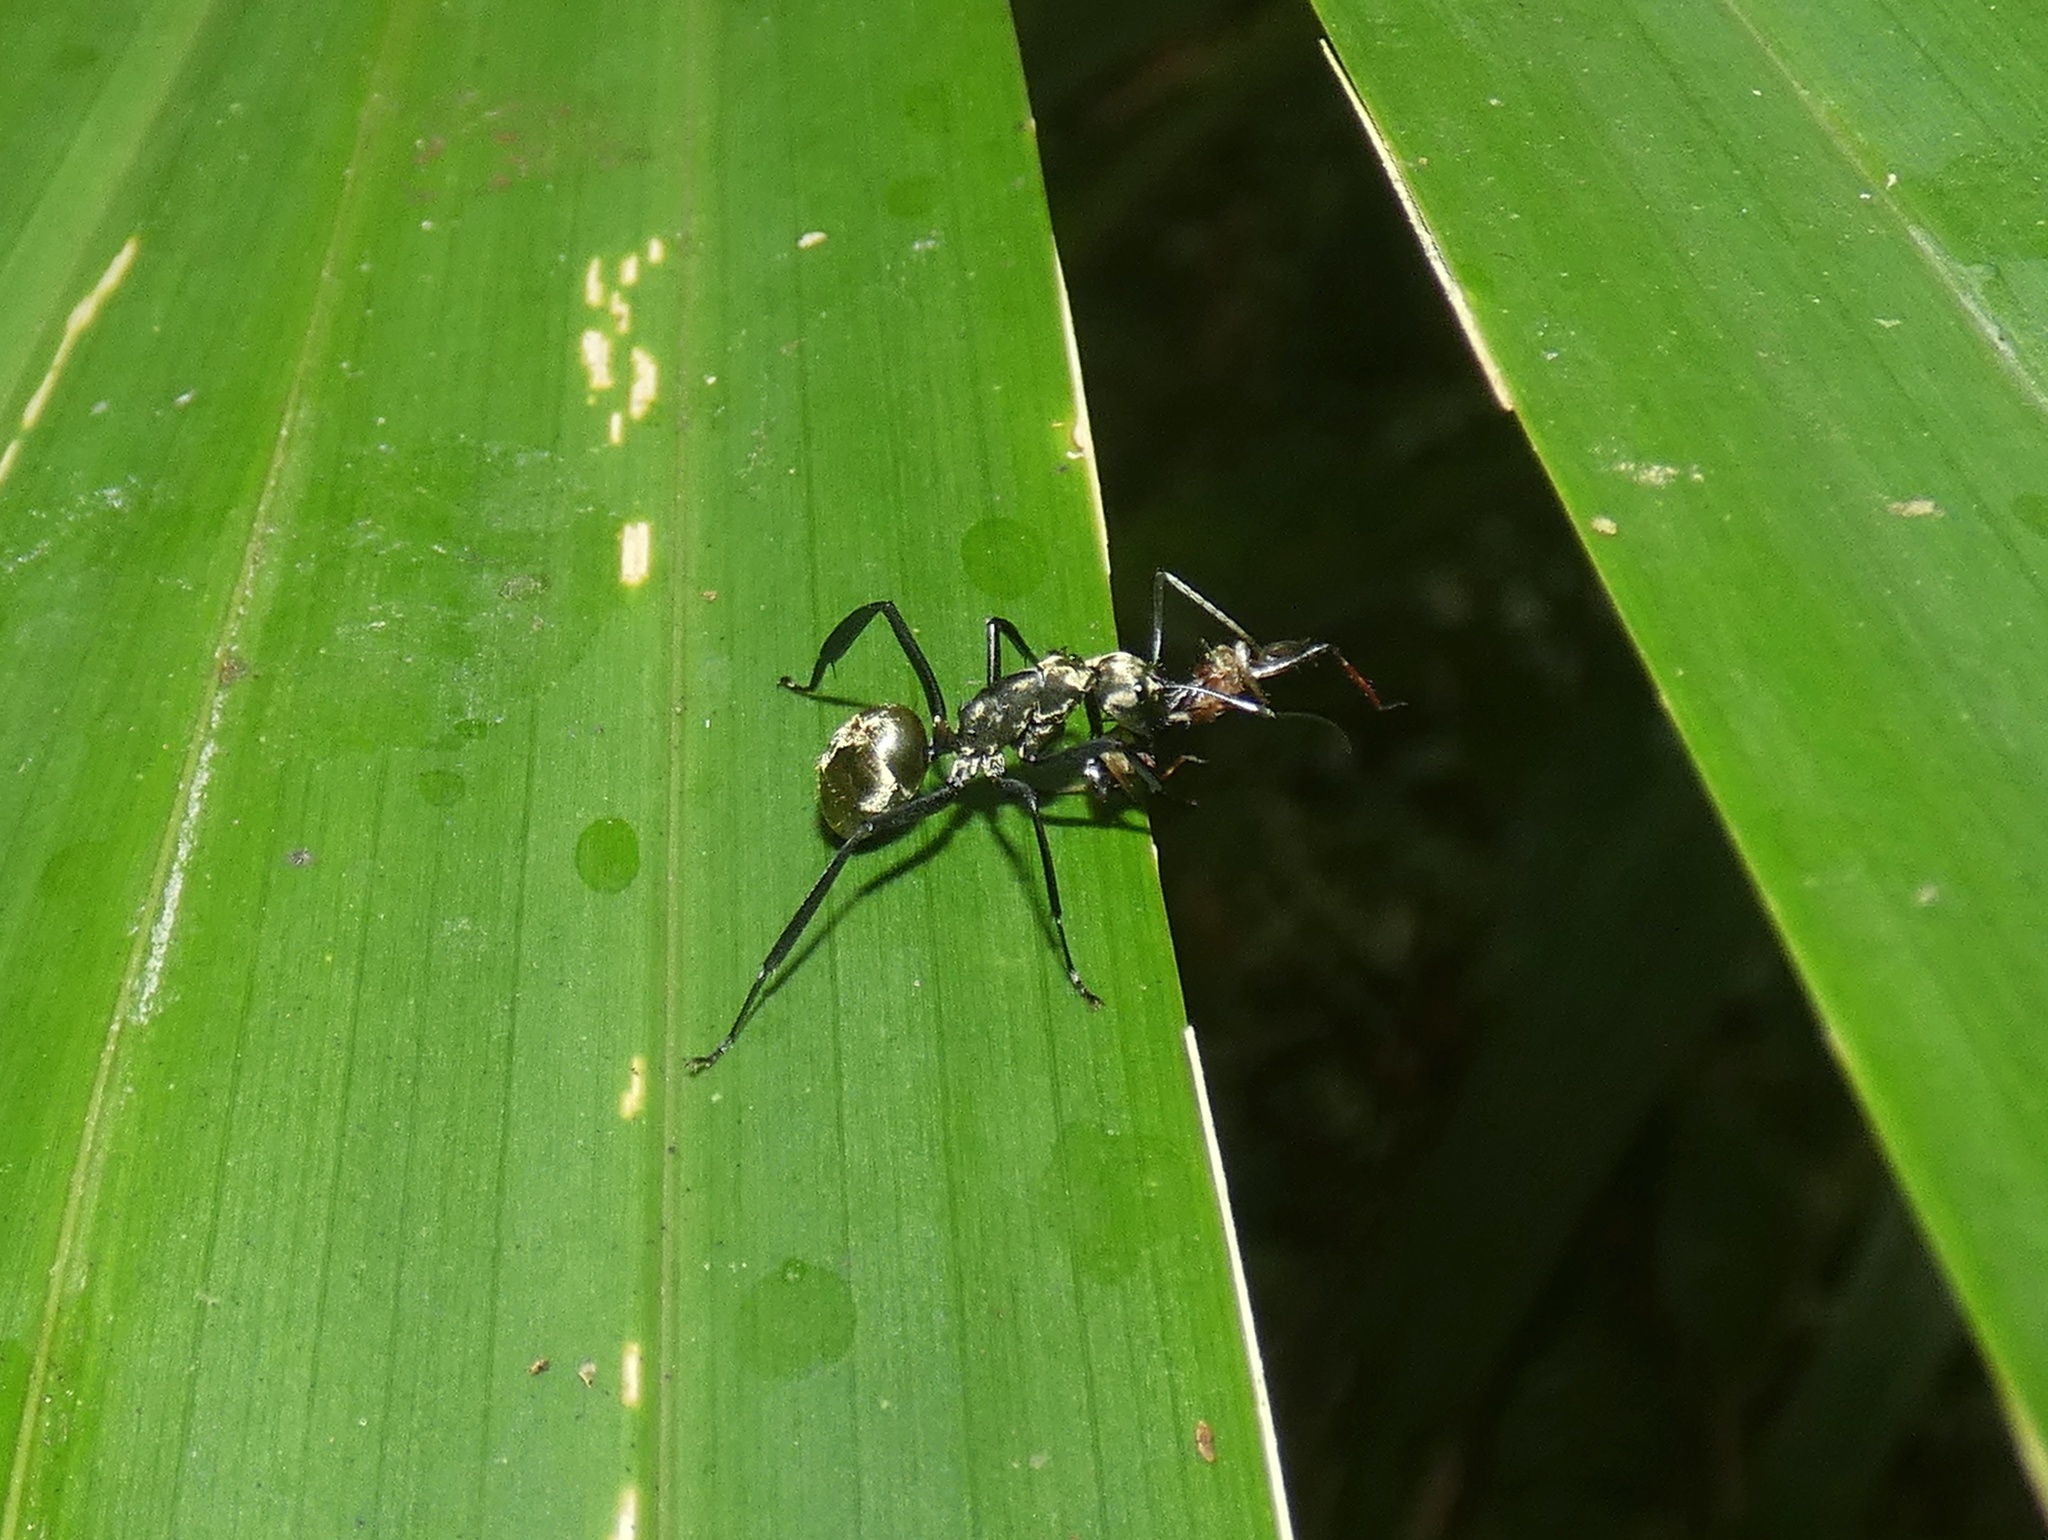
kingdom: Animalia
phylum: Arthropoda
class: Insecta
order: Hymenoptera
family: Formicidae
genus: Camponotus
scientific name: Camponotus sericeiventris
